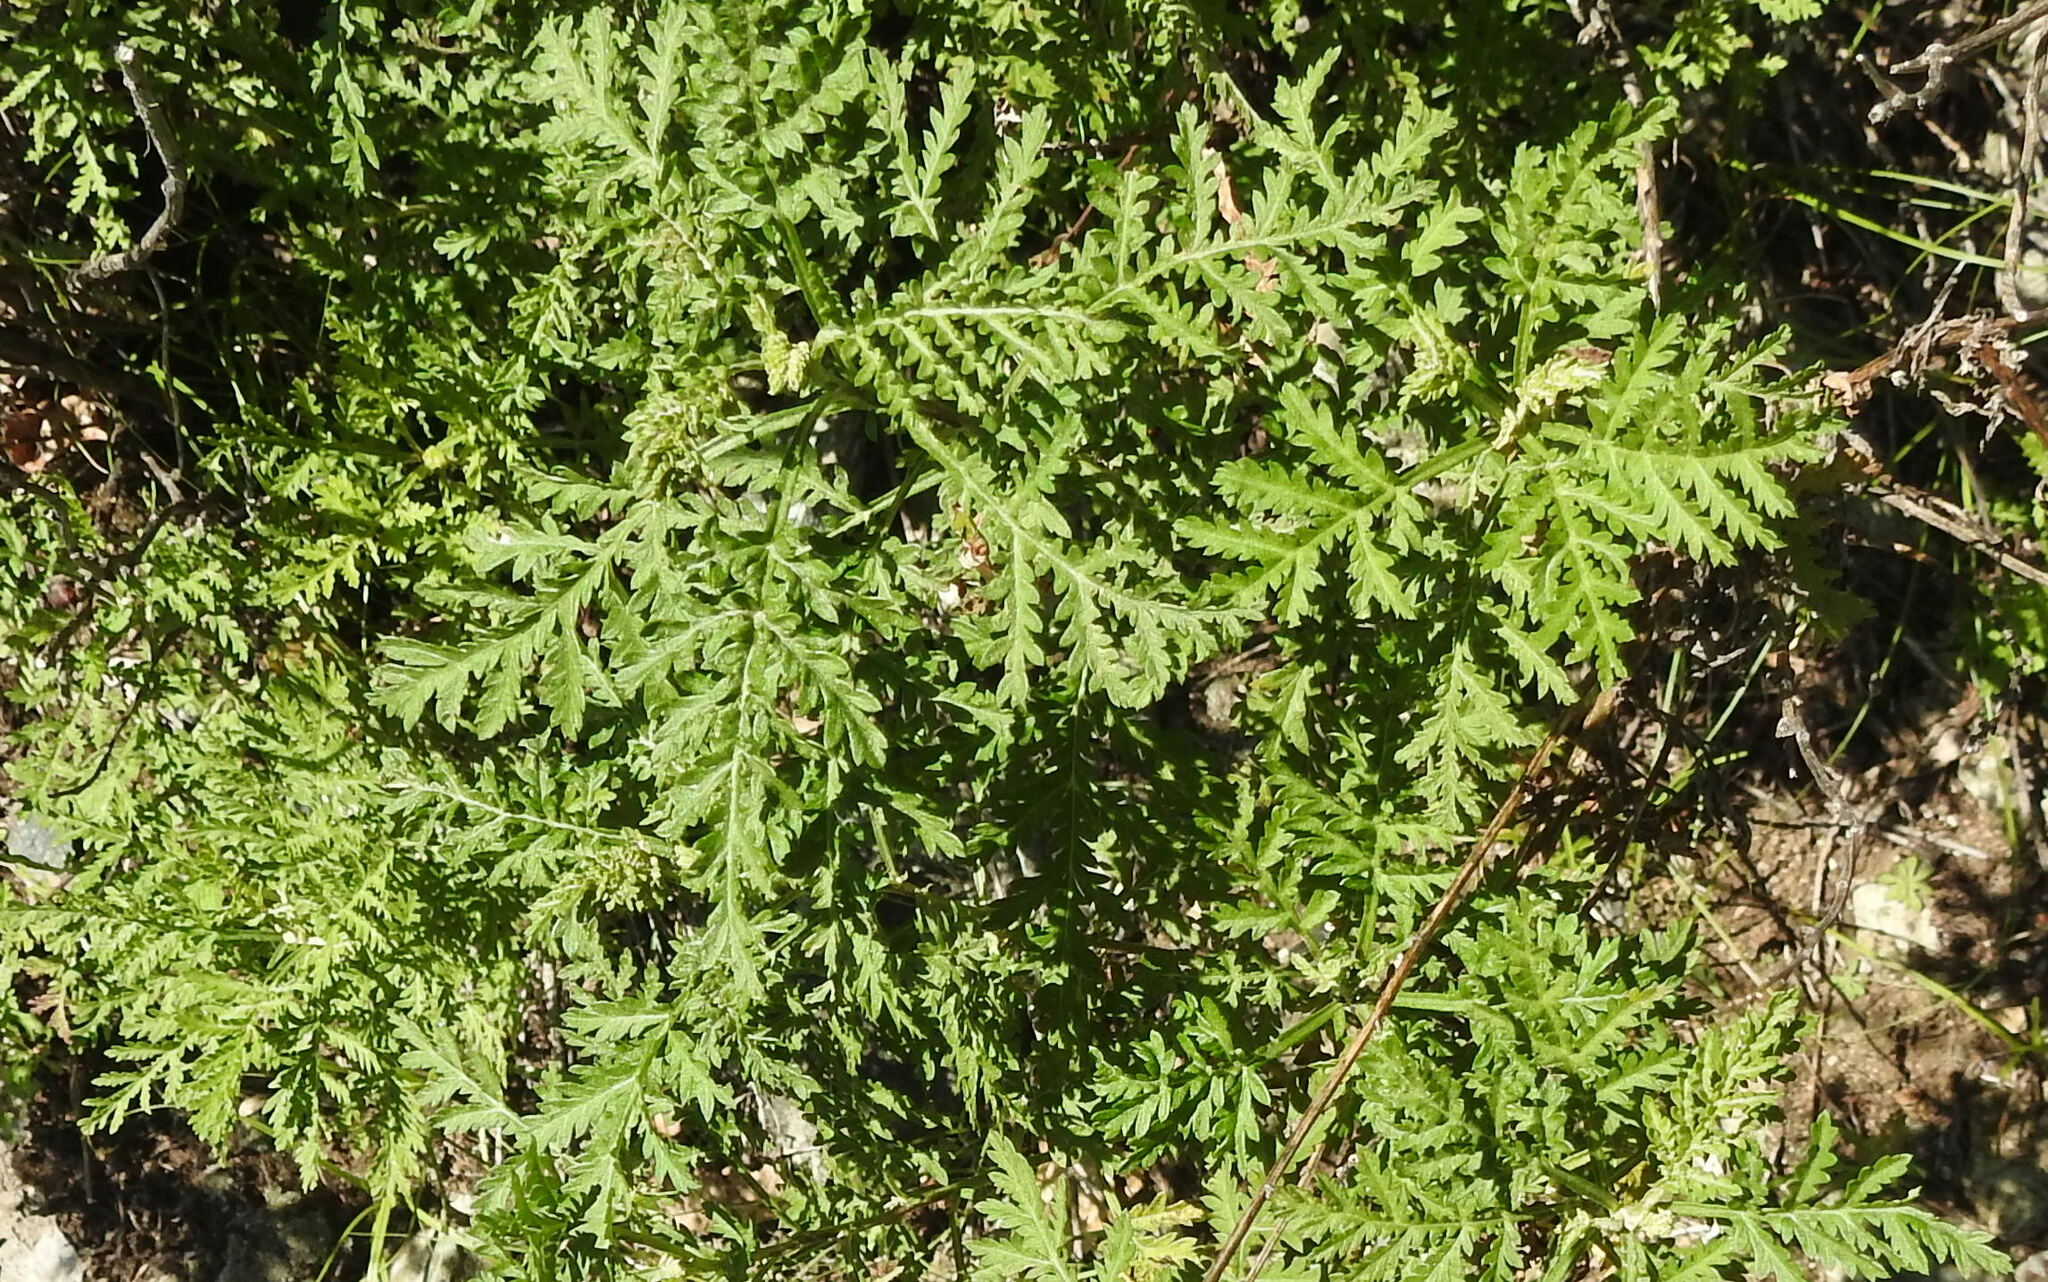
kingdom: Plantae
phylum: Tracheophyta
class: Magnoliopsida
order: Asterales
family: Asteraceae
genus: Artemisia
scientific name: Artemisia gmelinii
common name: Gmelin's wormwood
